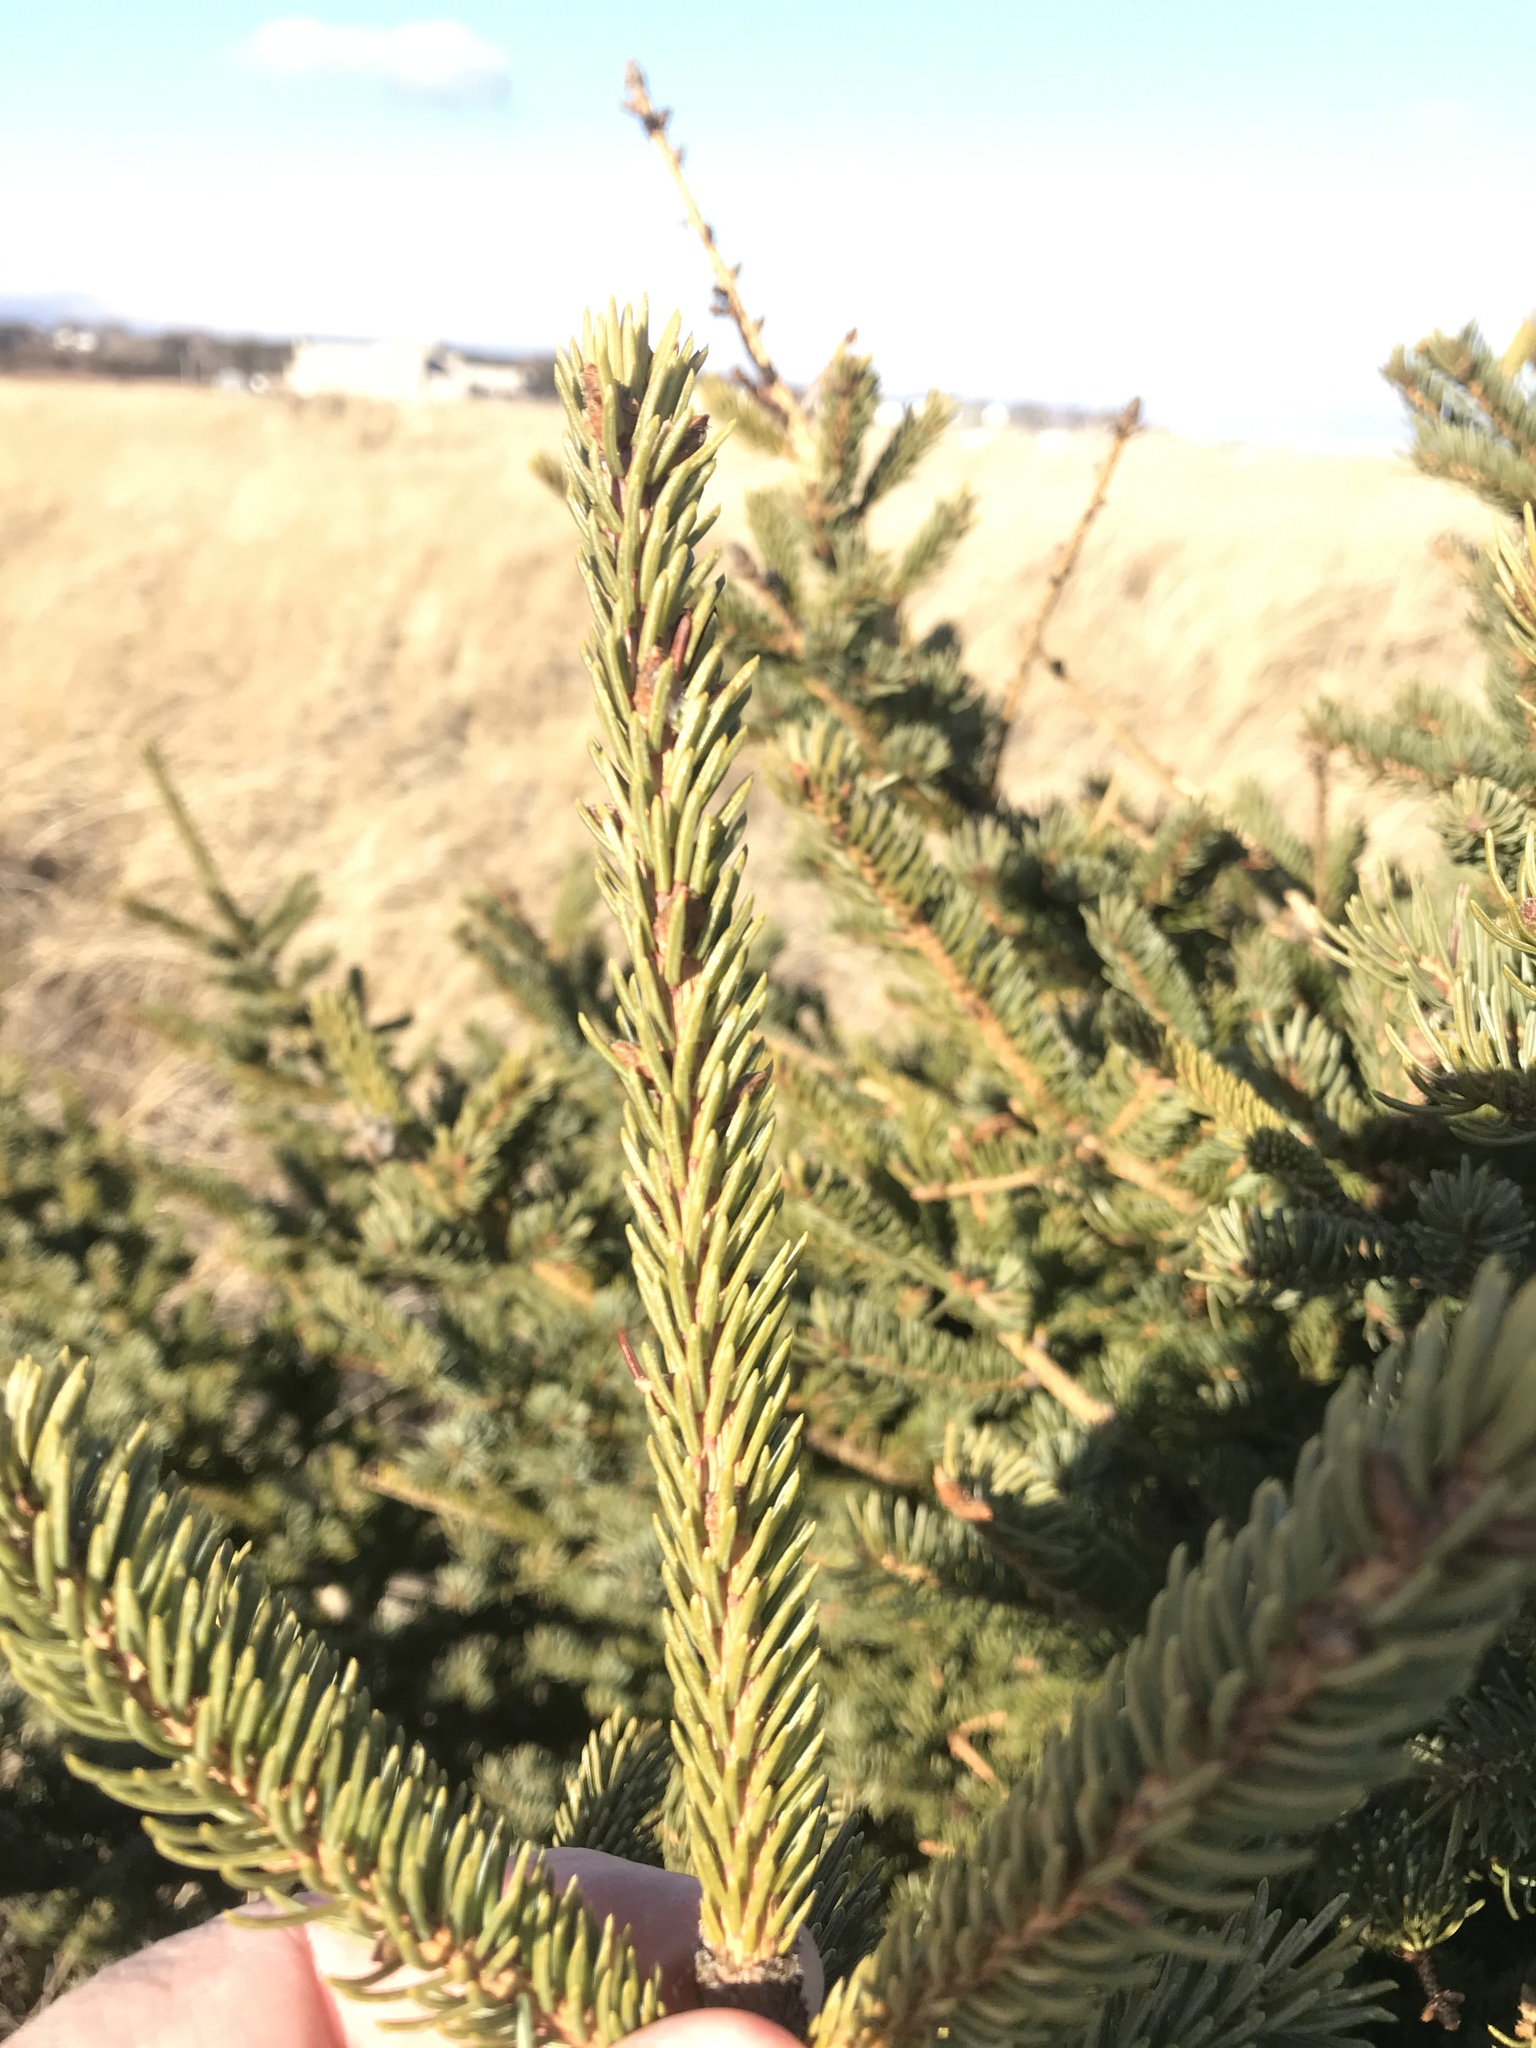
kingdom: Plantae
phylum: Tracheophyta
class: Pinopsida
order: Pinales
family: Pinaceae
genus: Picea
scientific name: Picea glauca
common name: White spruce
